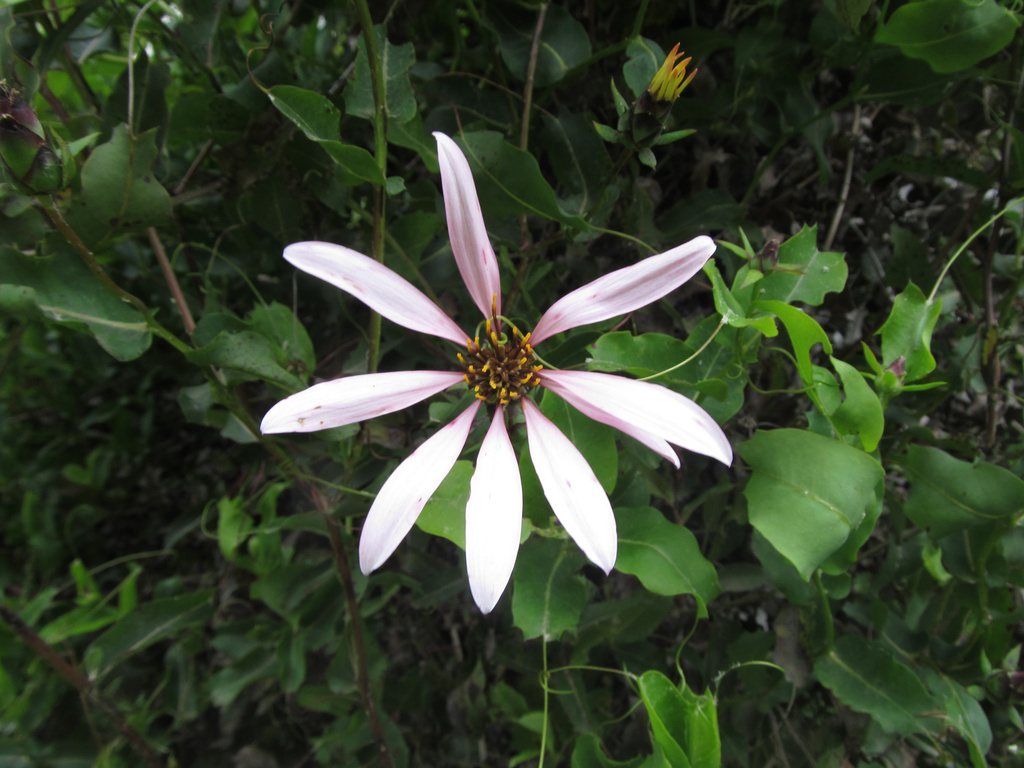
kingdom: Plantae
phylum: Tracheophyta
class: Magnoliopsida
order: Asterales
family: Asteraceae
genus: Mutisia
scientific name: Mutisia spinosa
